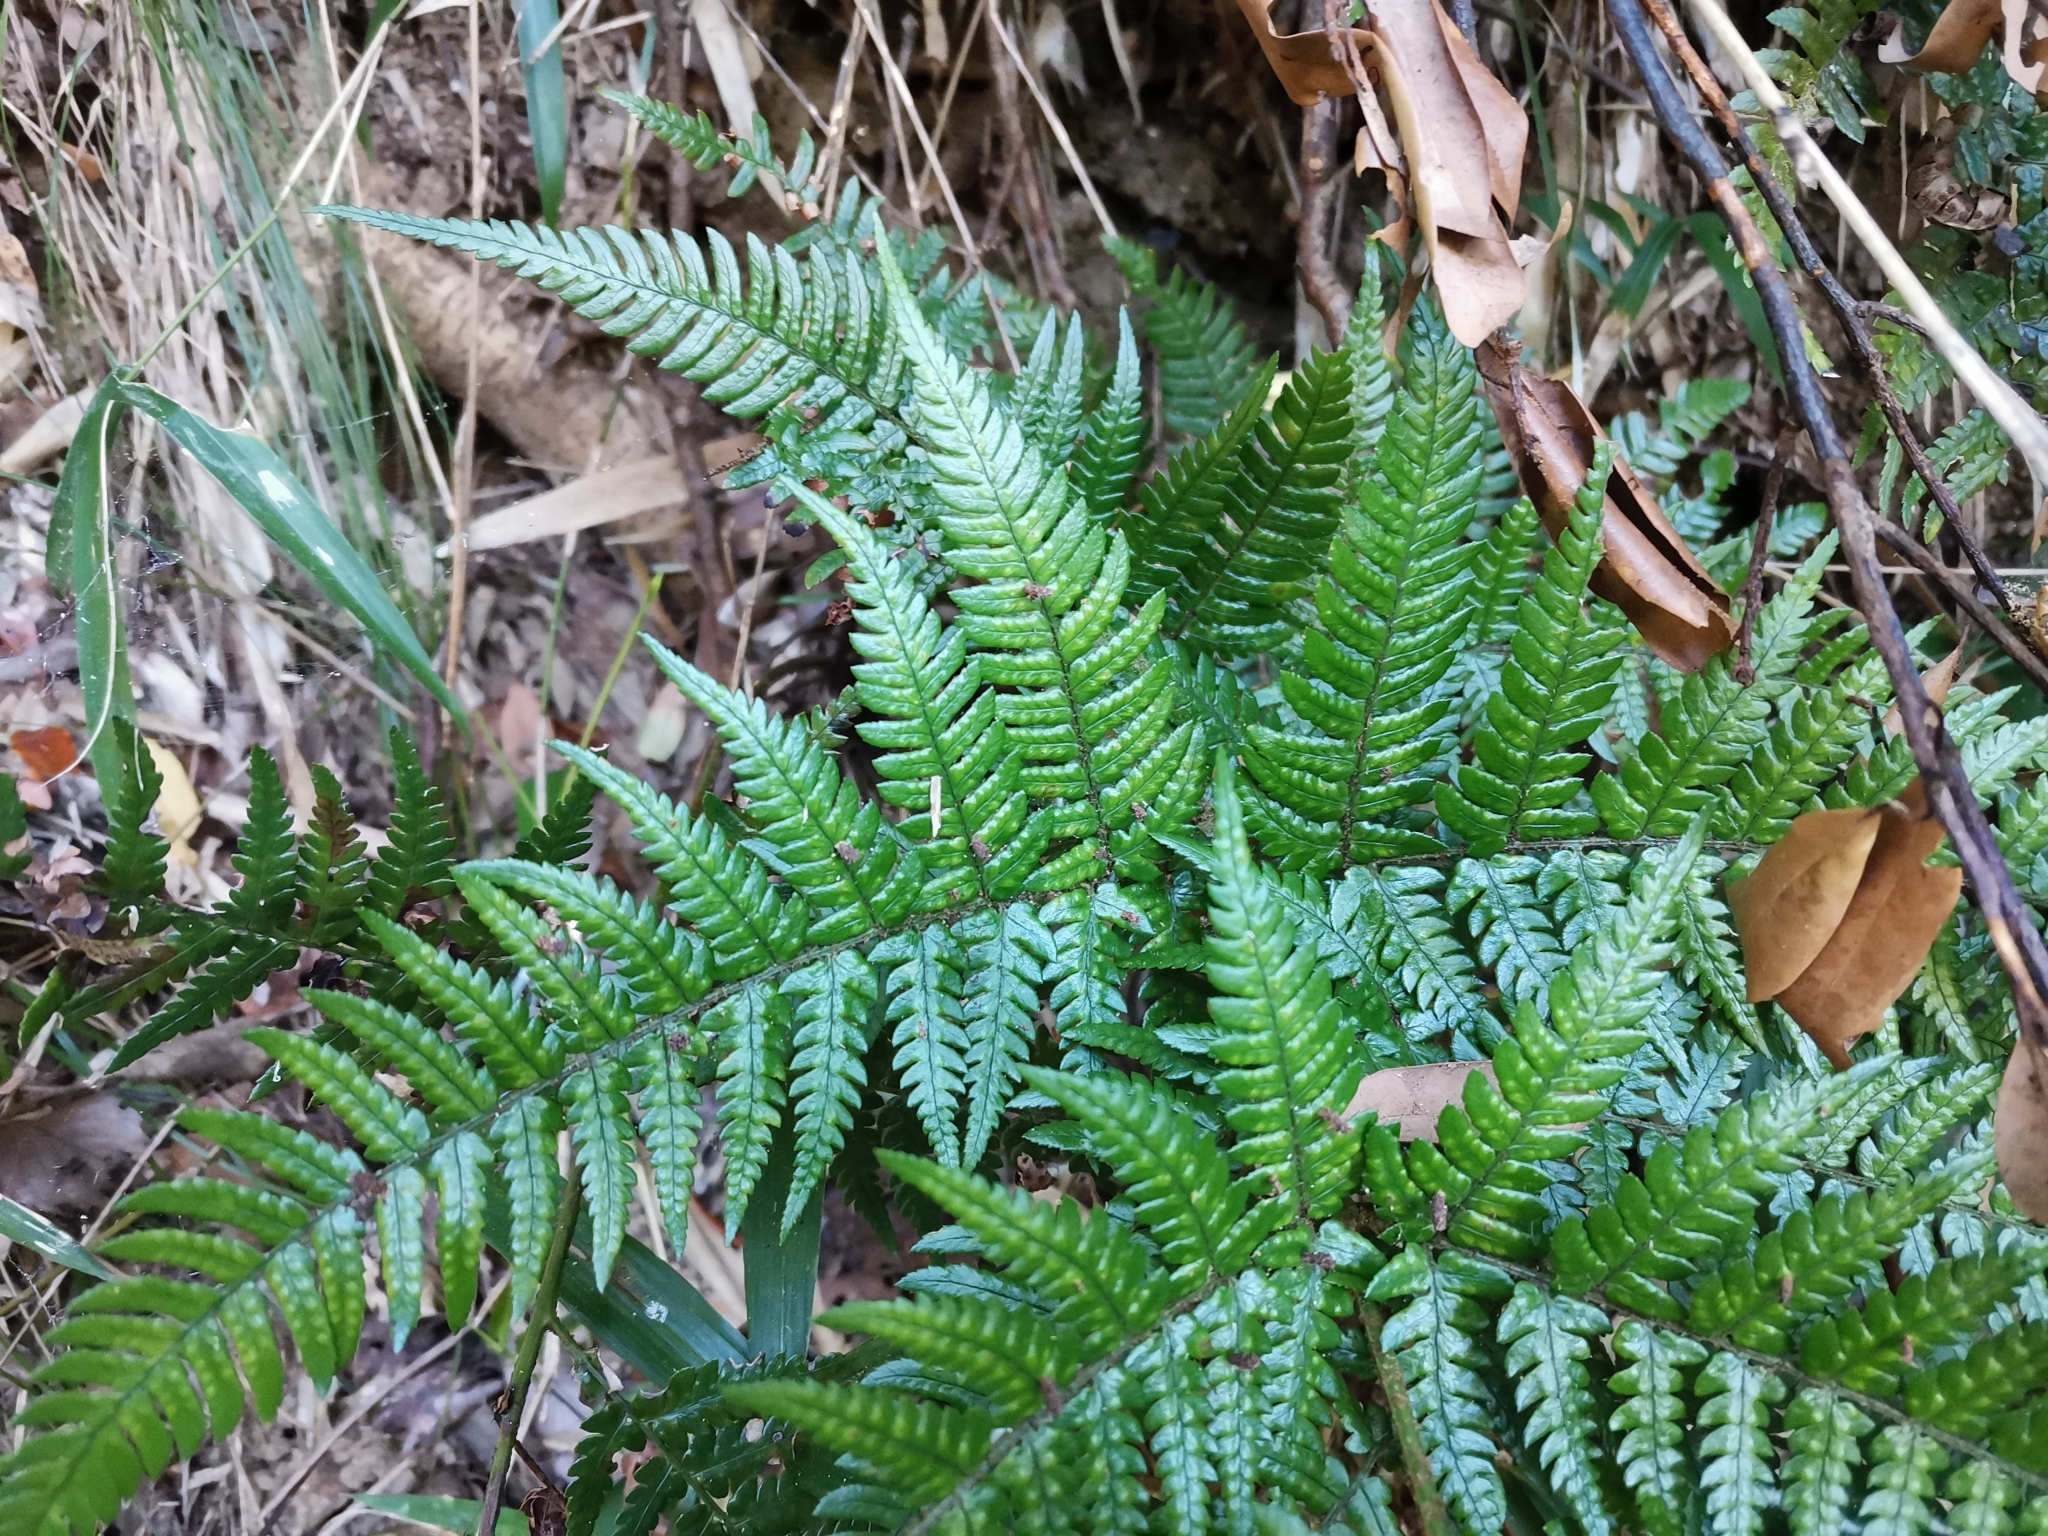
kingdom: Plantae
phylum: Tracheophyta
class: Polypodiopsida
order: Polypodiales
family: Dryopteridaceae
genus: Dryopteris
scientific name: Dryopteris sacrosancta
